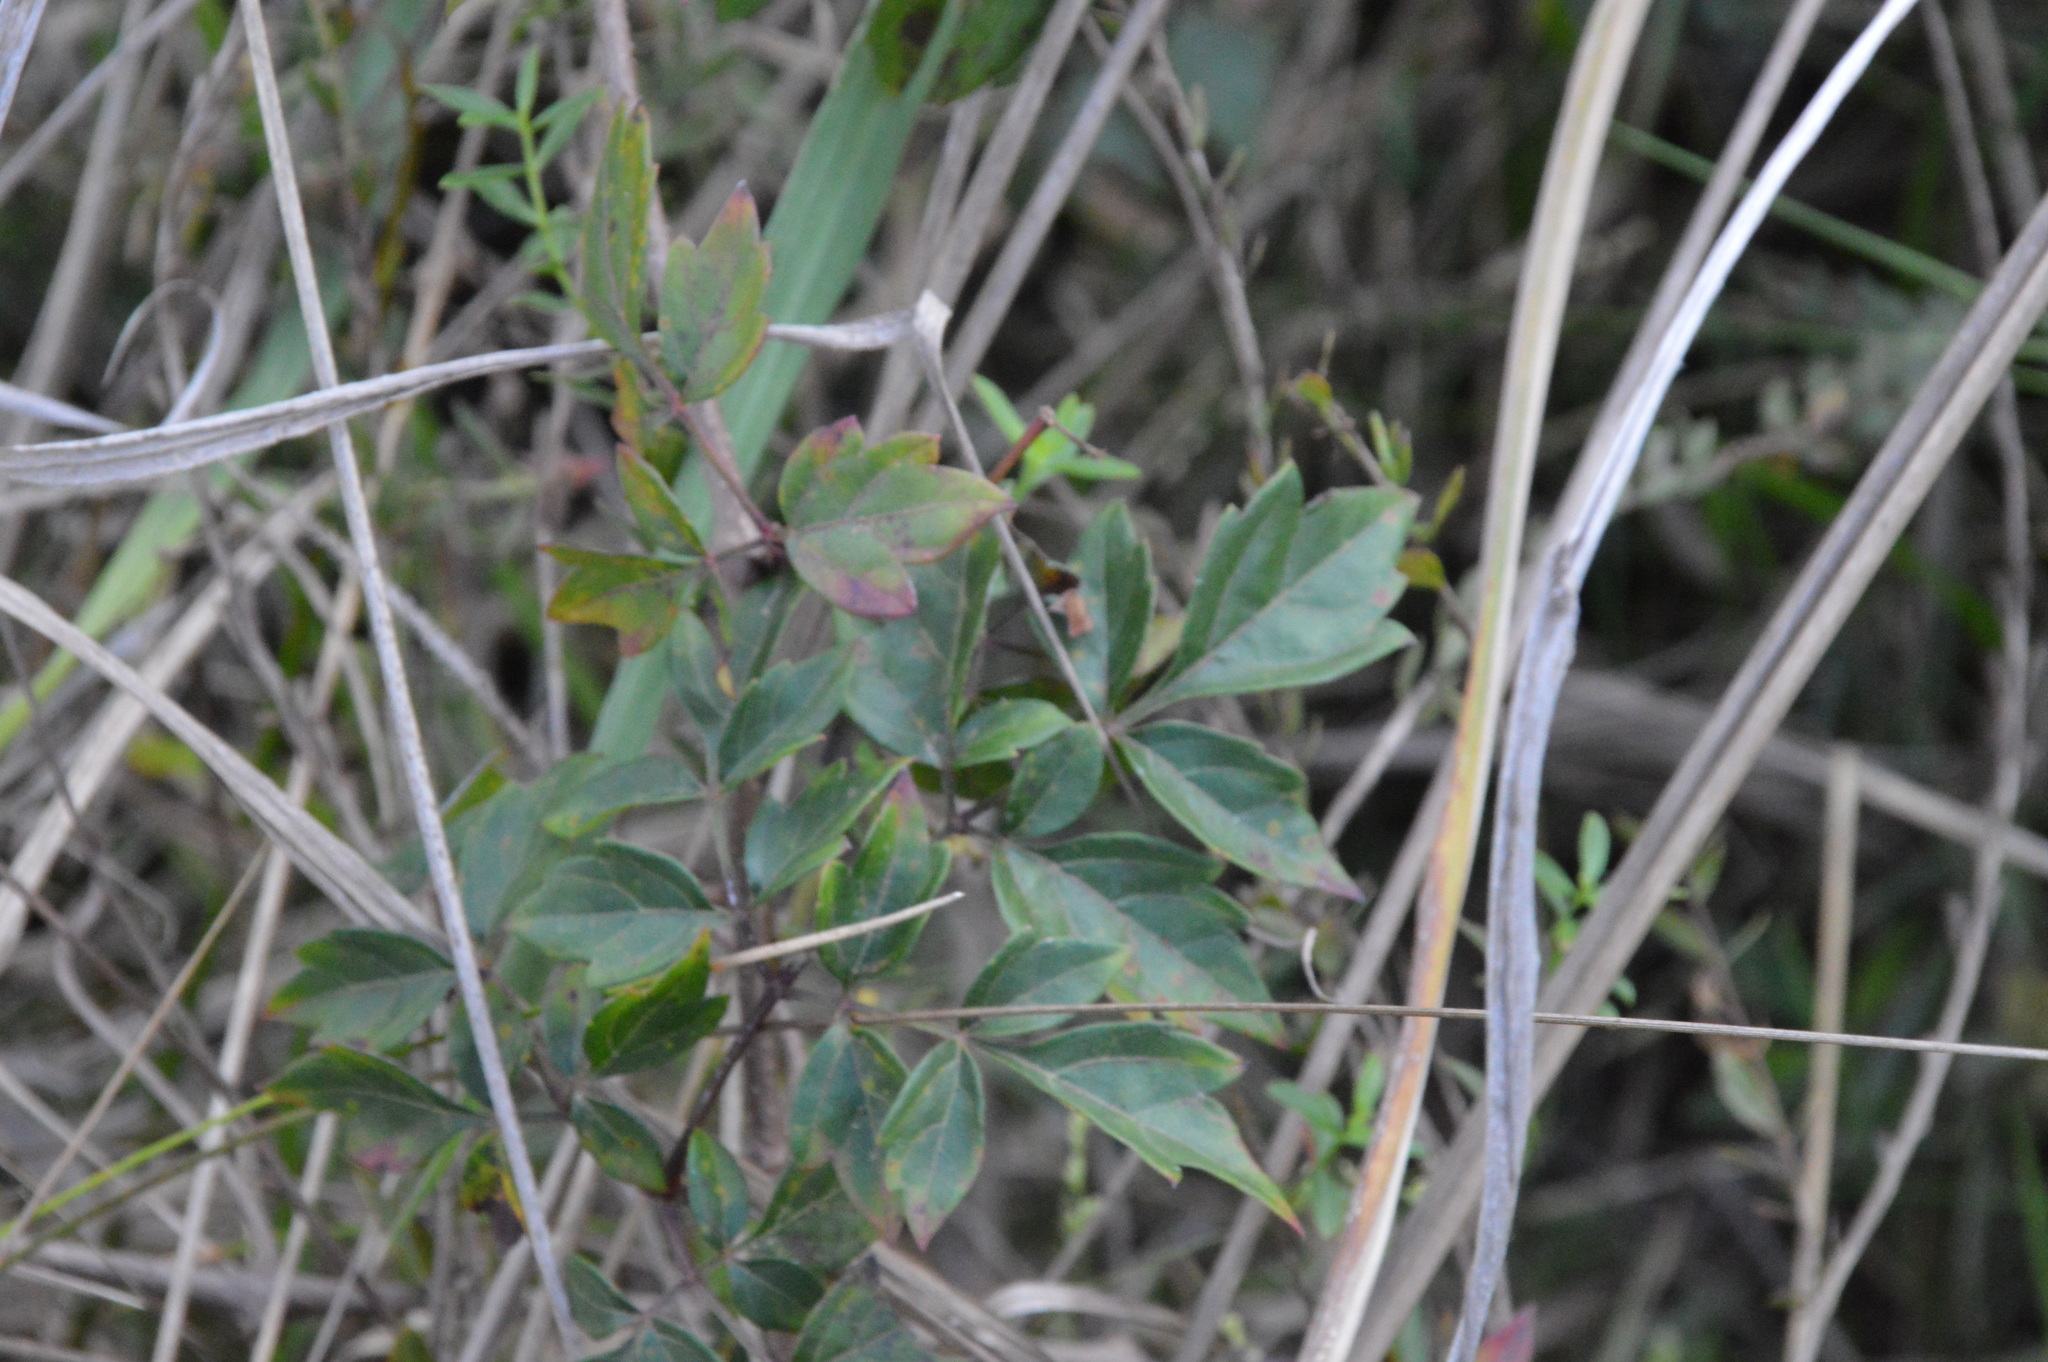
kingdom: Plantae
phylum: Tracheophyta
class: Magnoliopsida
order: Vitales
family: Vitaceae
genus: Nekemias
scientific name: Nekemias arborea
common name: Peppervine
